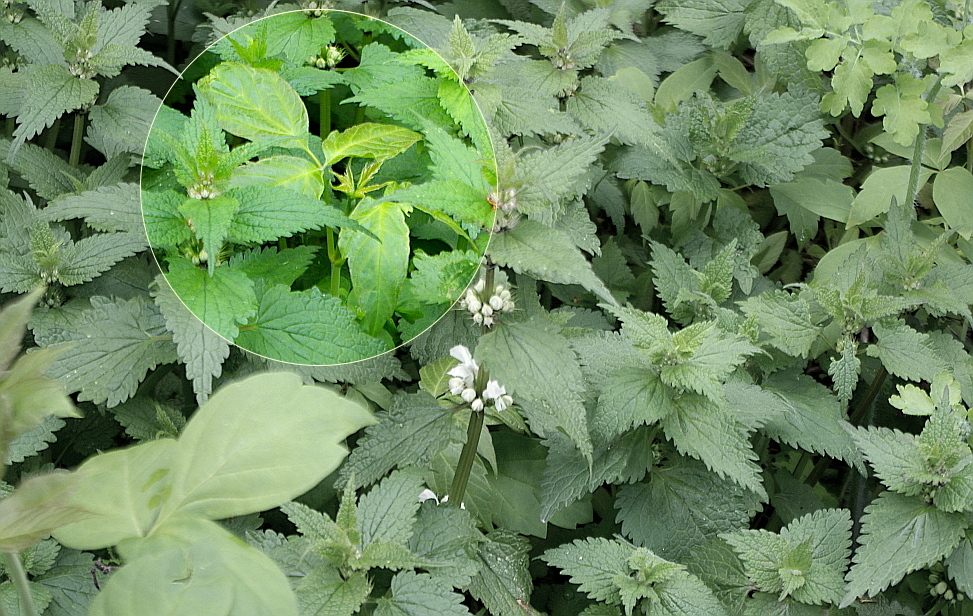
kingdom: Plantae
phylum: Tracheophyta
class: Magnoliopsida
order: Sapindales
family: Sapindaceae
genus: Acer
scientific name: Acer negundo
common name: Ashleaf maple
